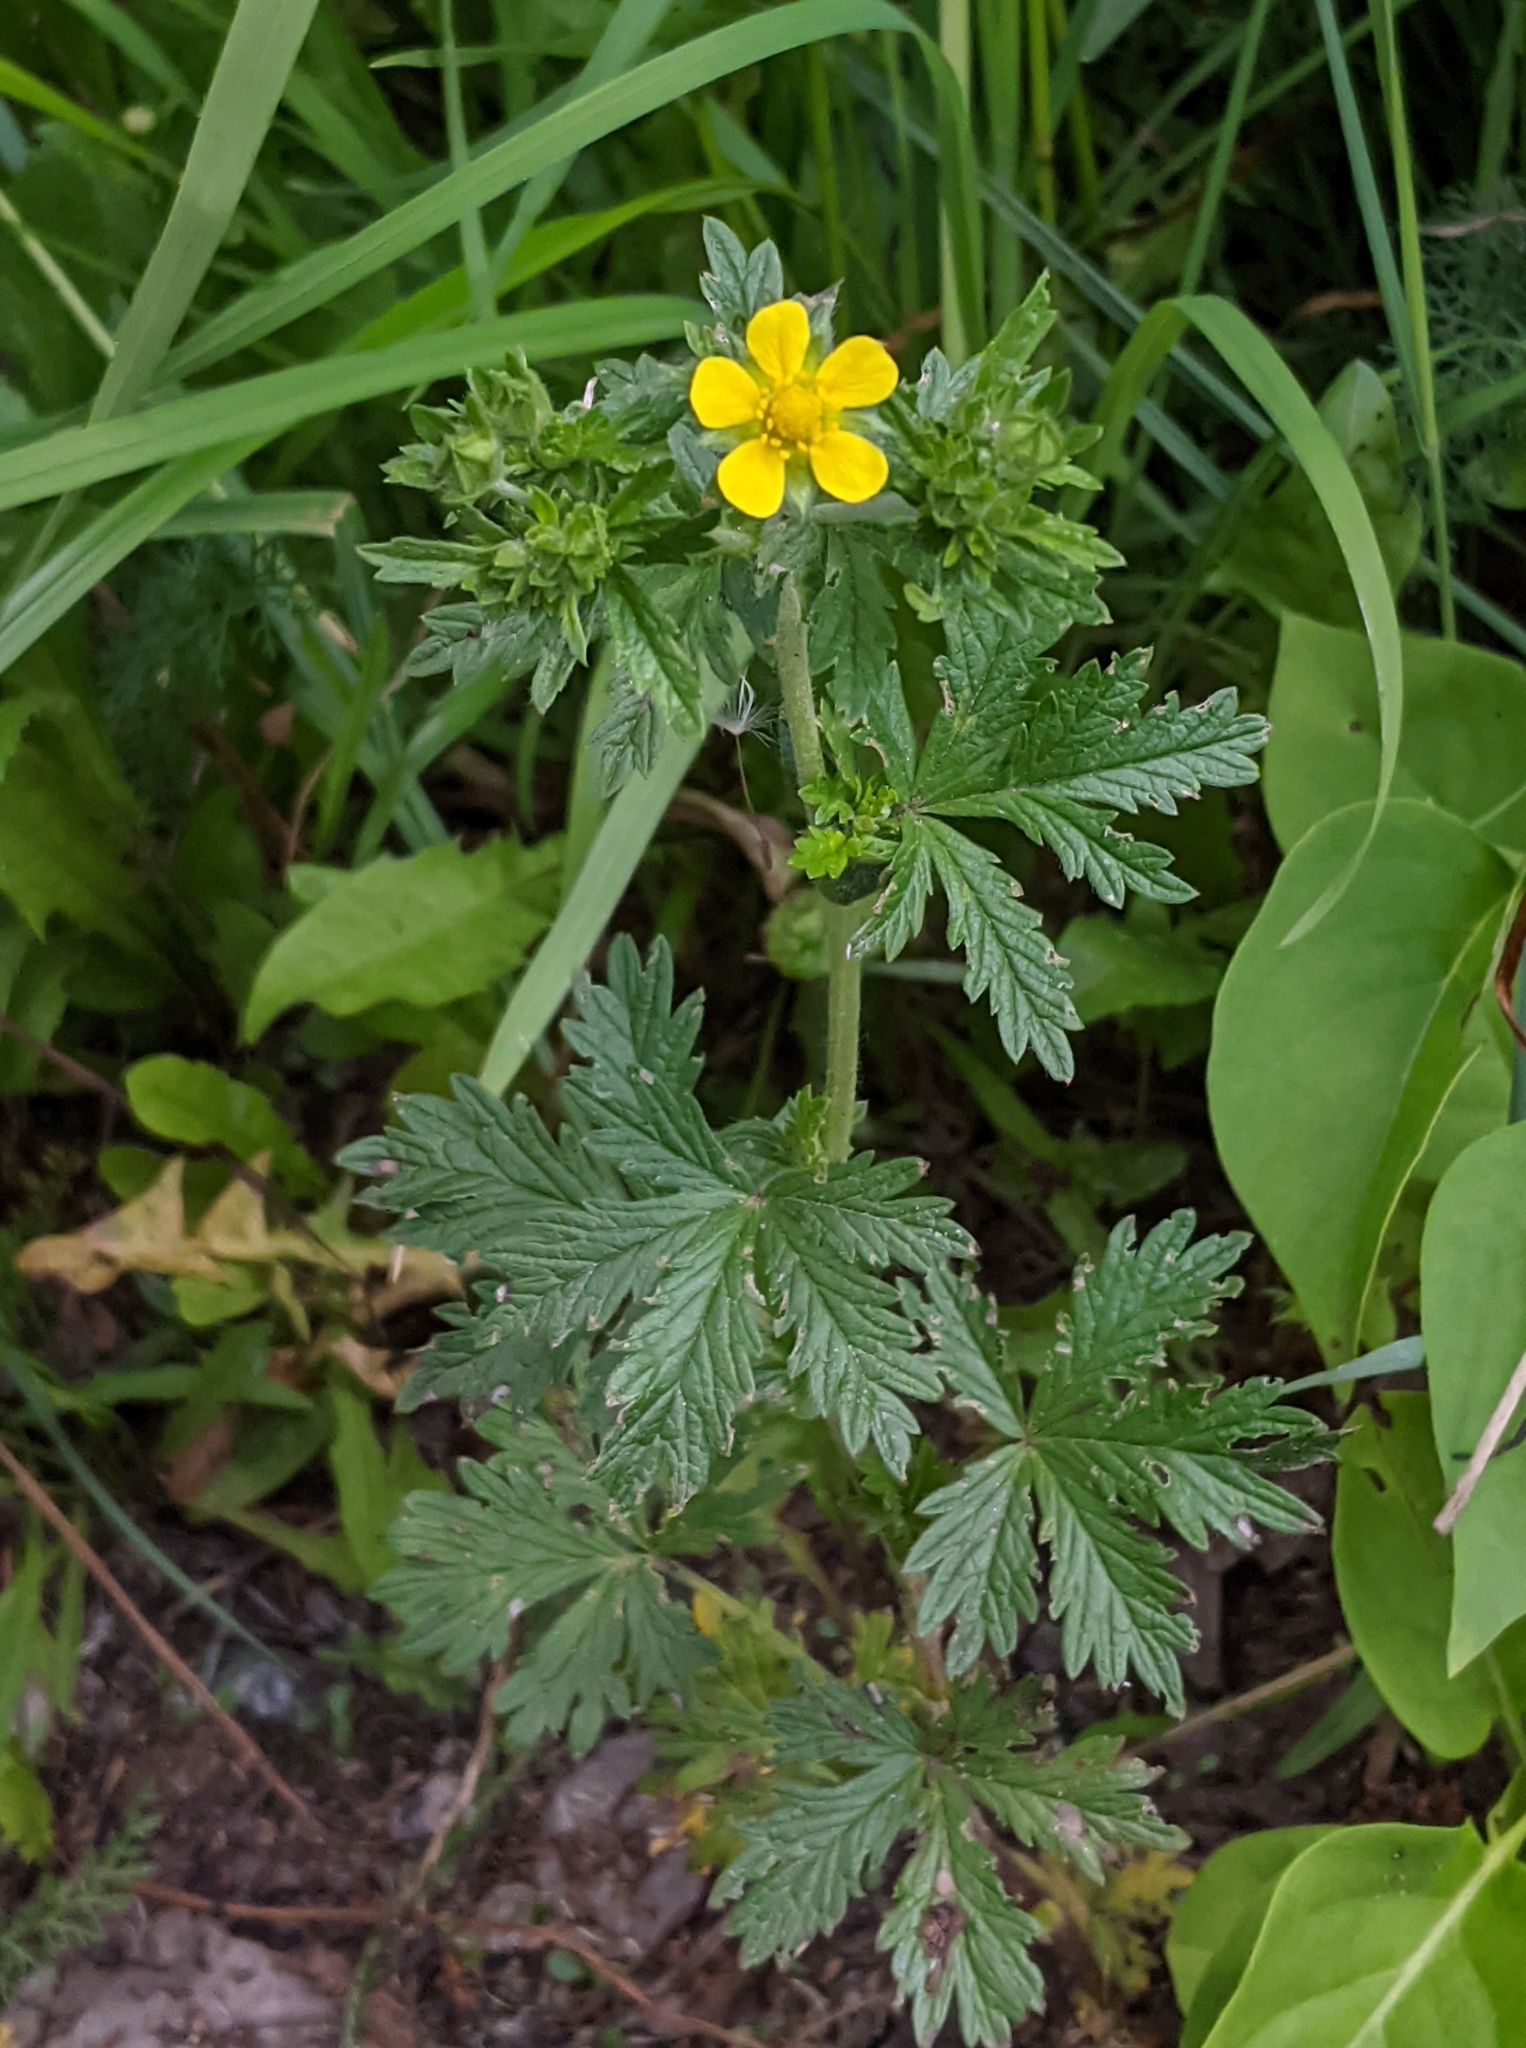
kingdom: Plantae
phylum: Tracheophyta
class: Magnoliopsida
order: Rosales
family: Rosaceae
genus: Potentilla
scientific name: Potentilla intermedia
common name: Downy cinquefoil
